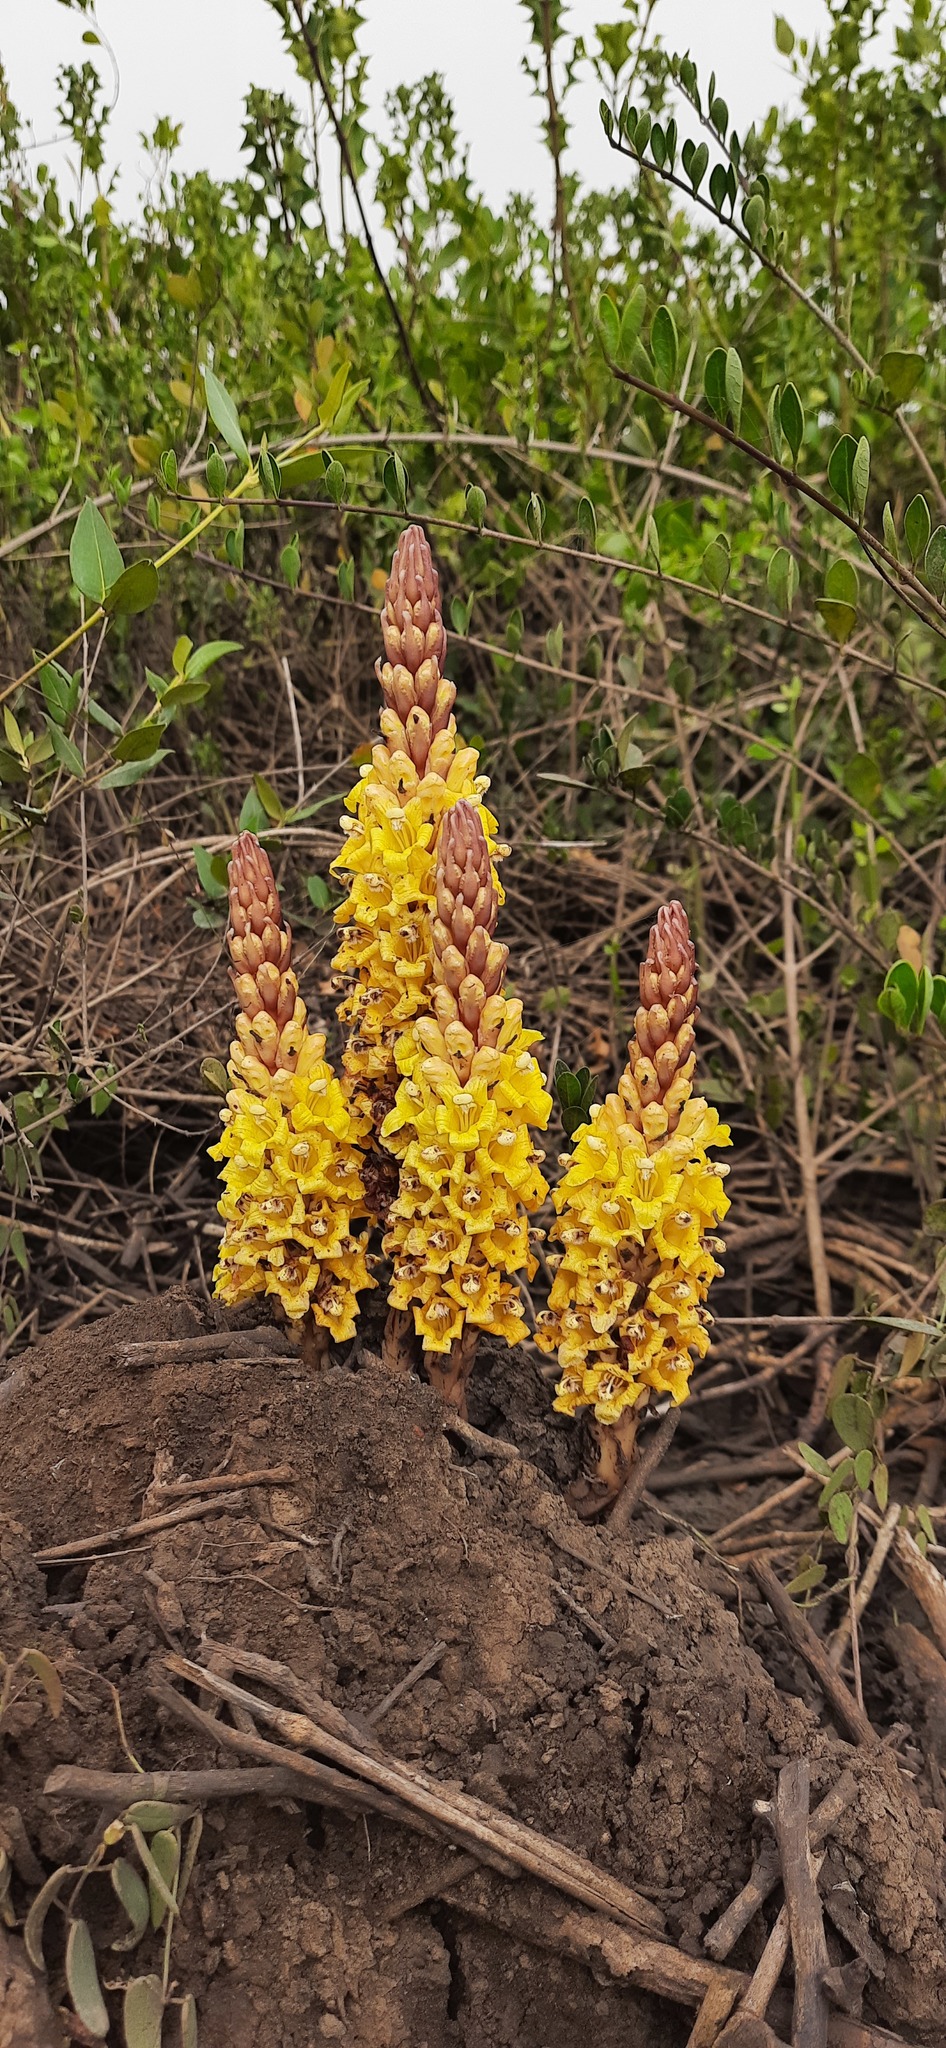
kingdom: Plantae
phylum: Tracheophyta
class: Magnoliopsida
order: Lamiales
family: Orobanchaceae
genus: Cistanche
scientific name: Cistanche tubulosa
